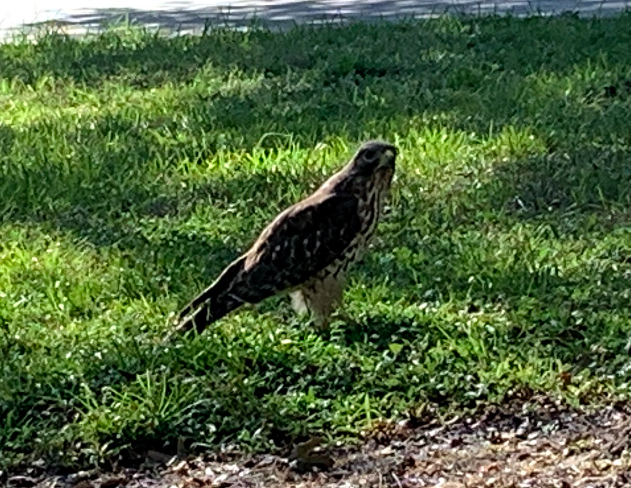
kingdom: Animalia
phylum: Chordata
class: Aves
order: Accipitriformes
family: Accipitridae
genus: Buteo
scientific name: Buteo lineatus
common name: Red-shouldered hawk
